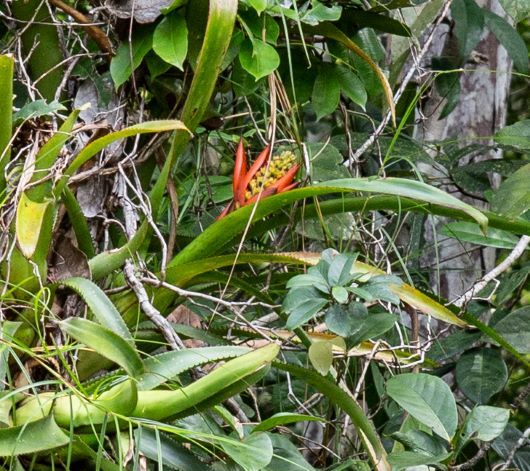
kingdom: Plantae
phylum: Tracheophyta
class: Liliopsida
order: Poales
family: Bromeliaceae
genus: Aechmea
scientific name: Aechmea mertensii
